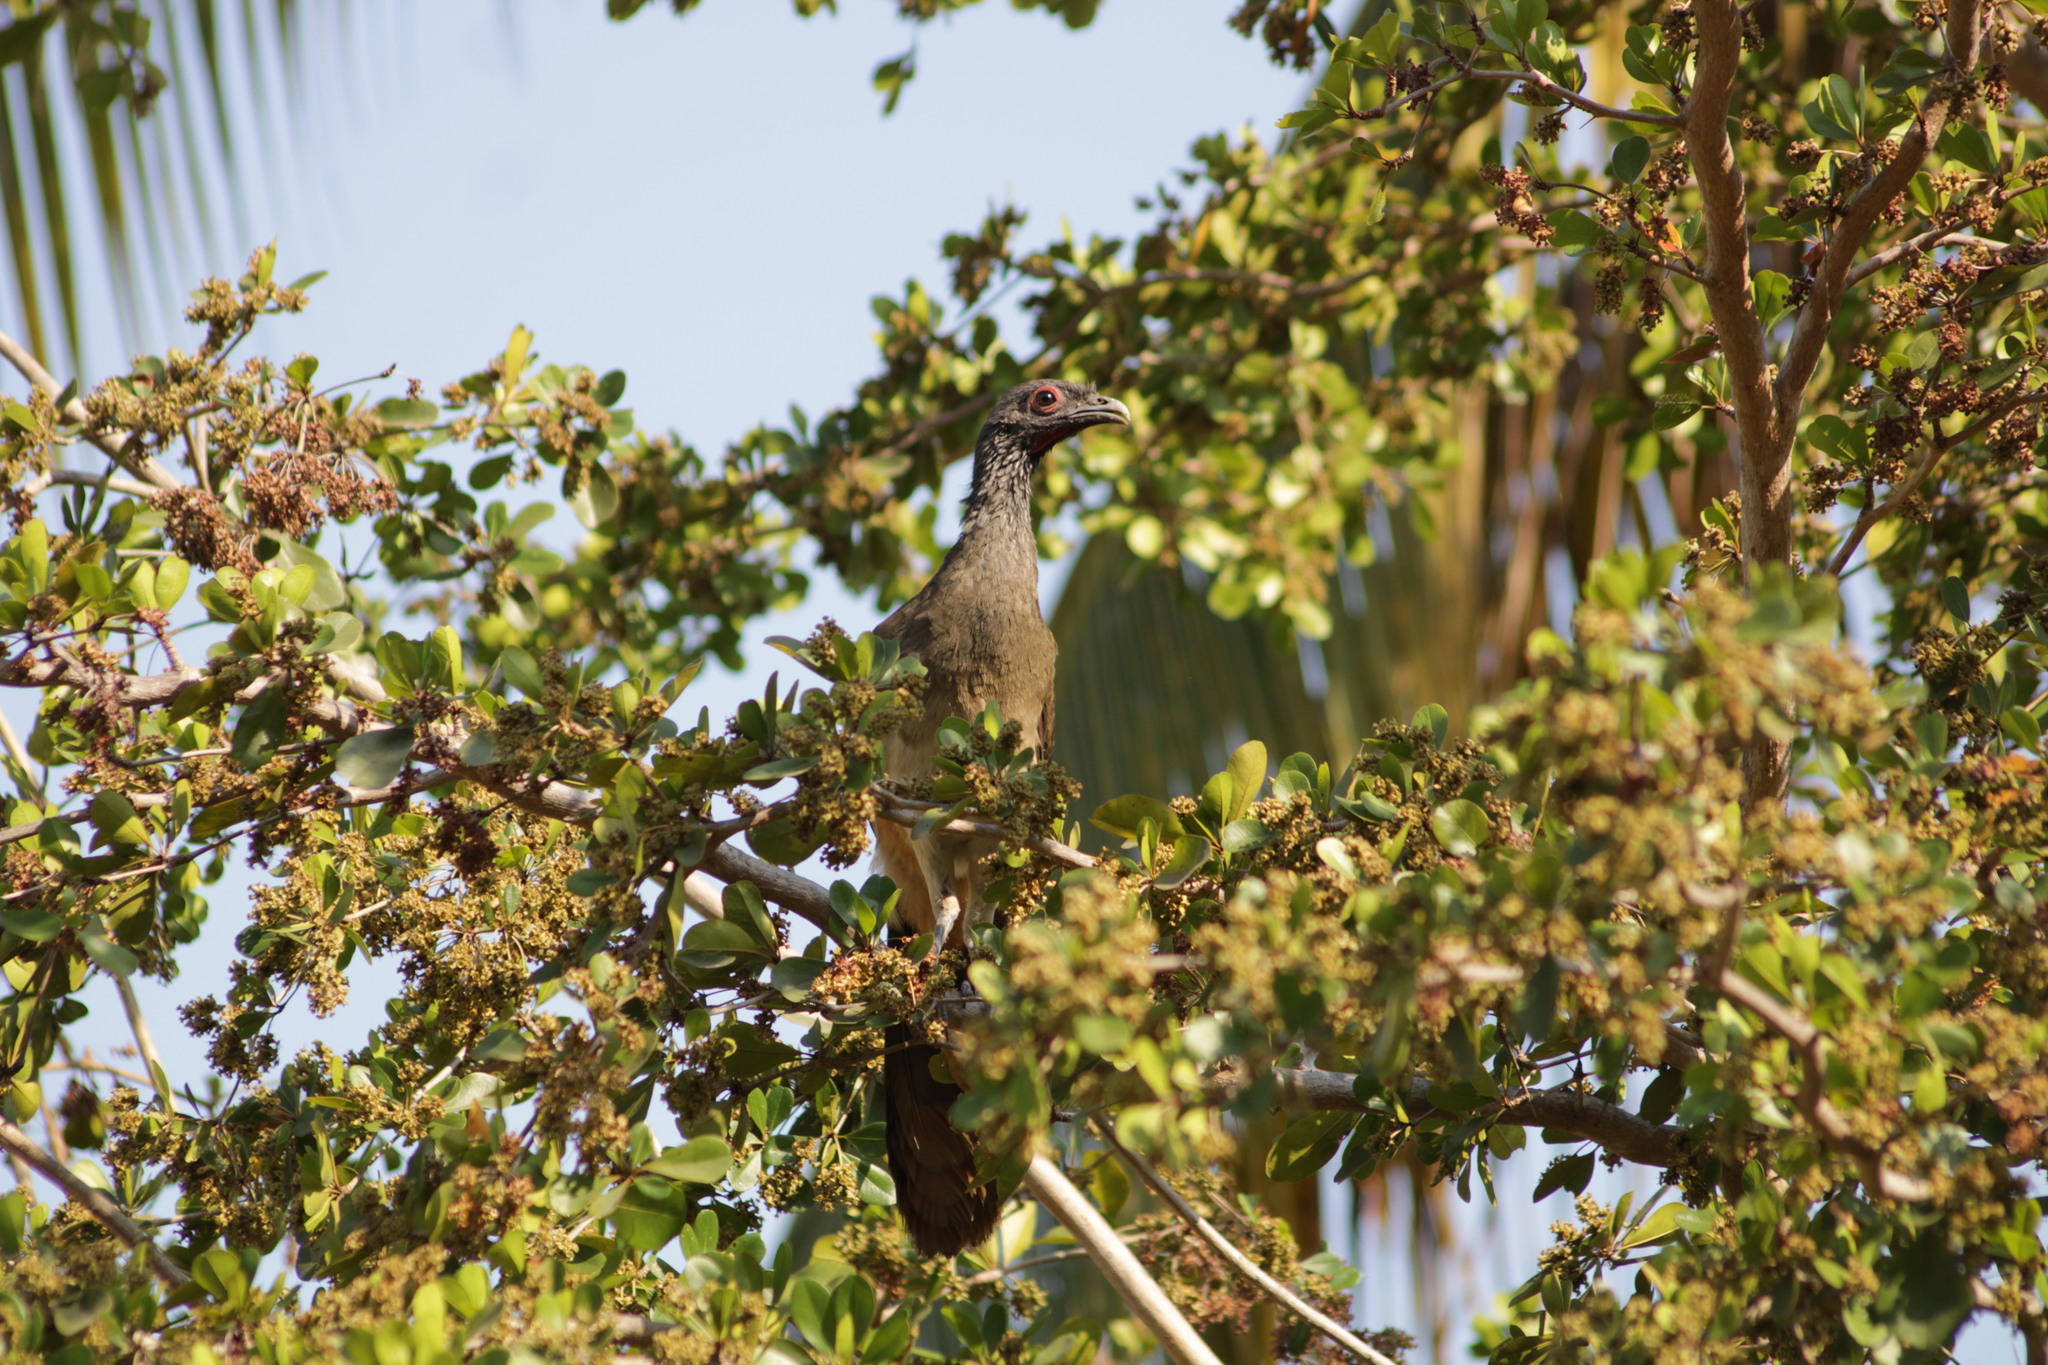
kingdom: Animalia
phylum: Chordata
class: Aves
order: Galliformes
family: Cracidae
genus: Ortalis
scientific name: Ortalis poliocephala
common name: West mexican chachalaca
